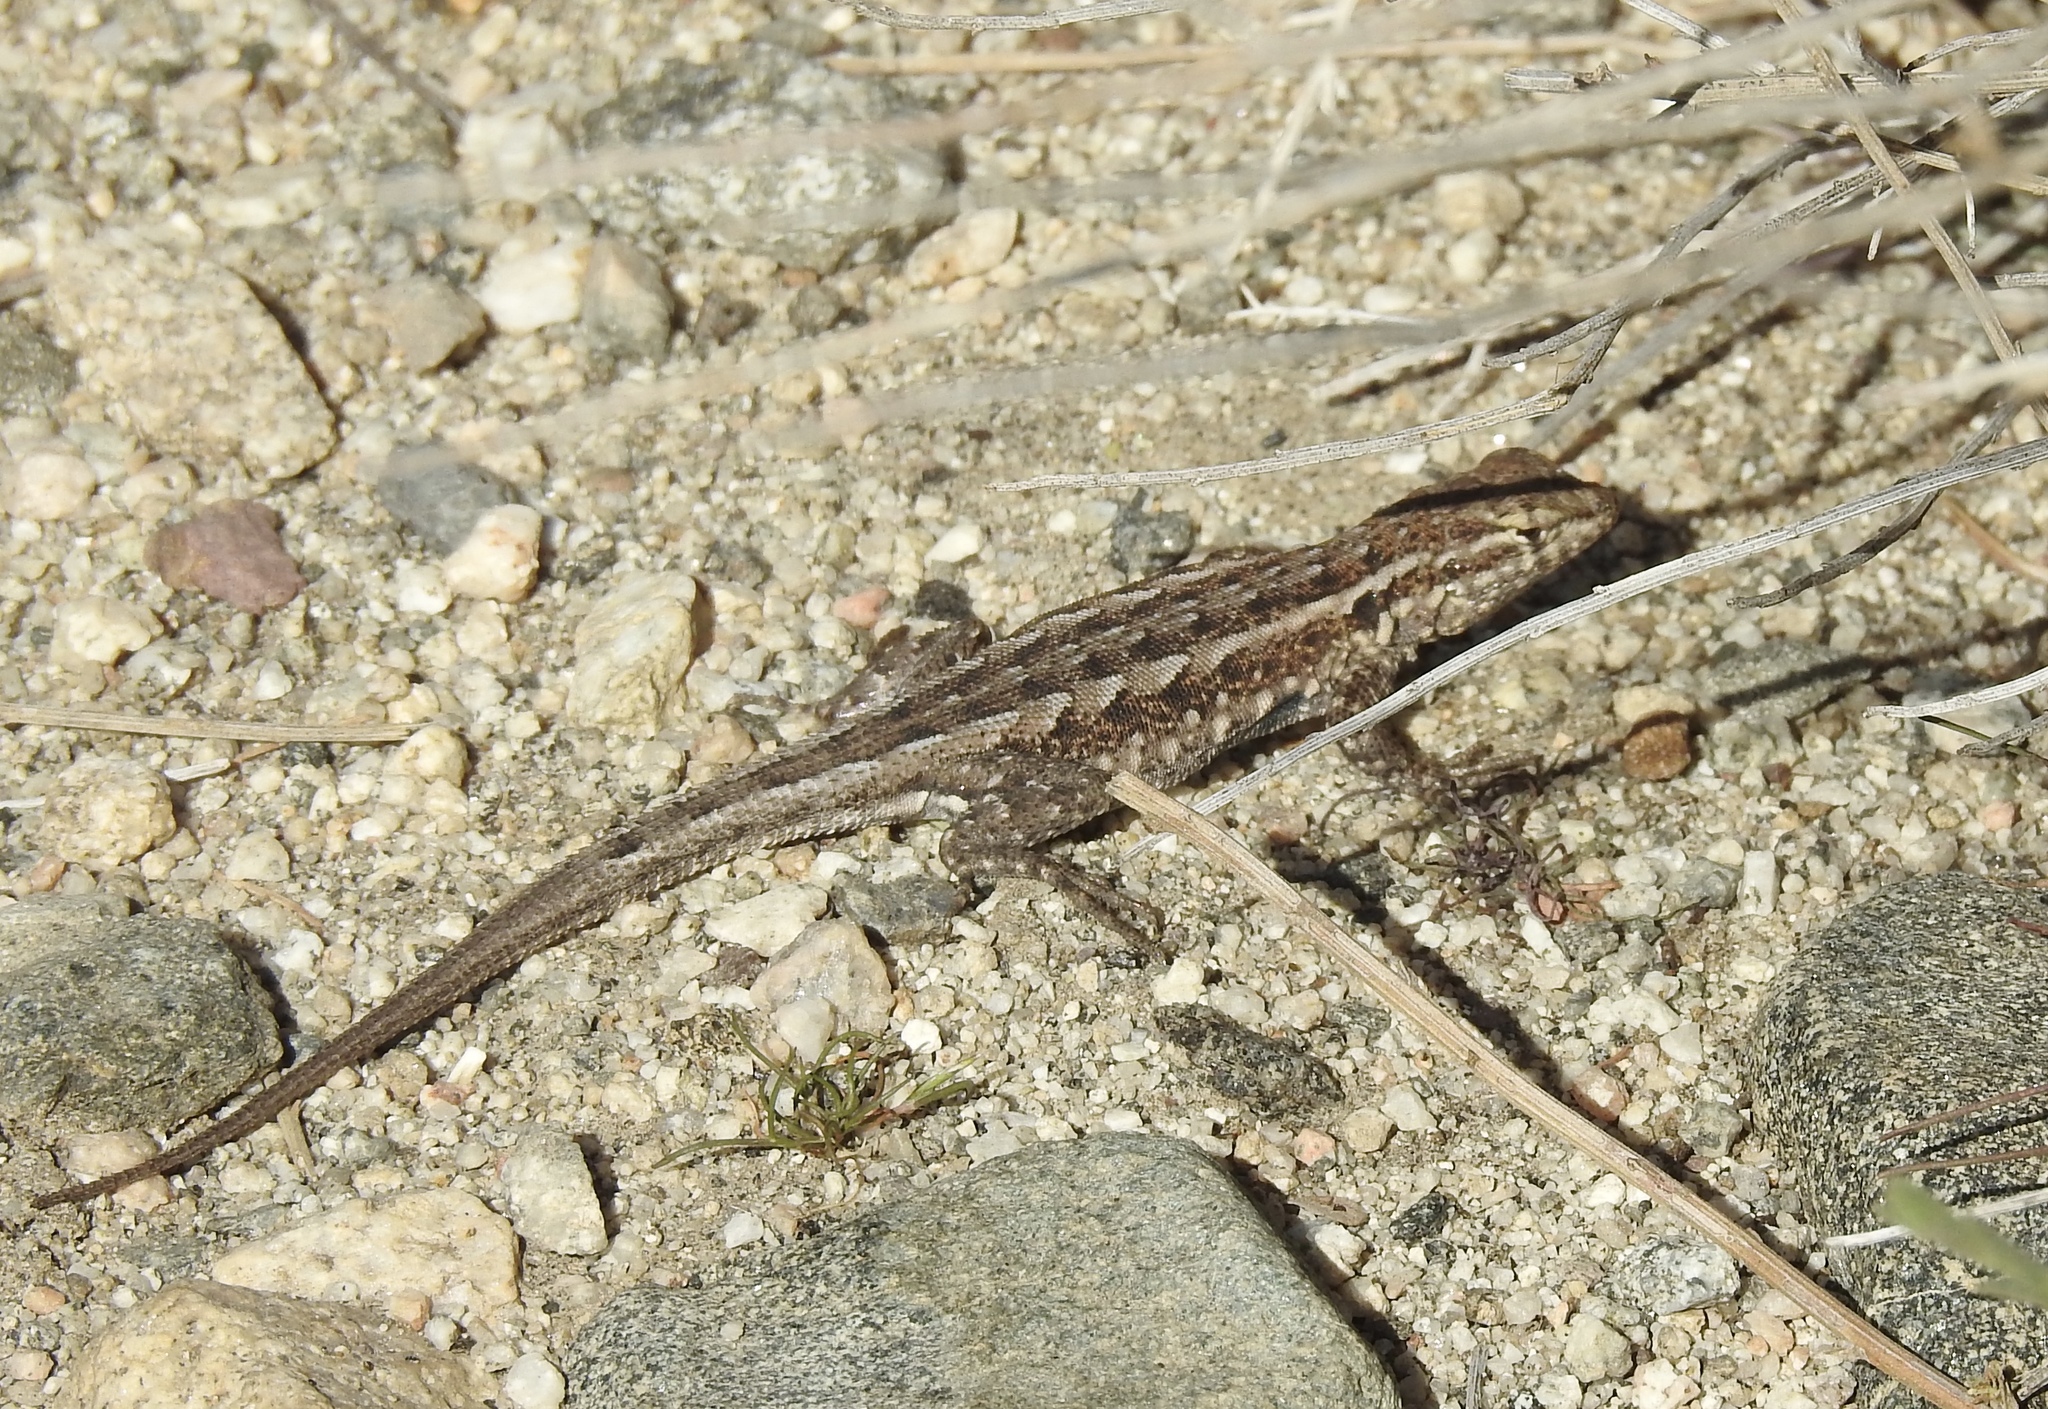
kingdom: Animalia
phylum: Chordata
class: Squamata
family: Phrynosomatidae
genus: Uta
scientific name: Uta stansburiana
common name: Side-blotched lizard
